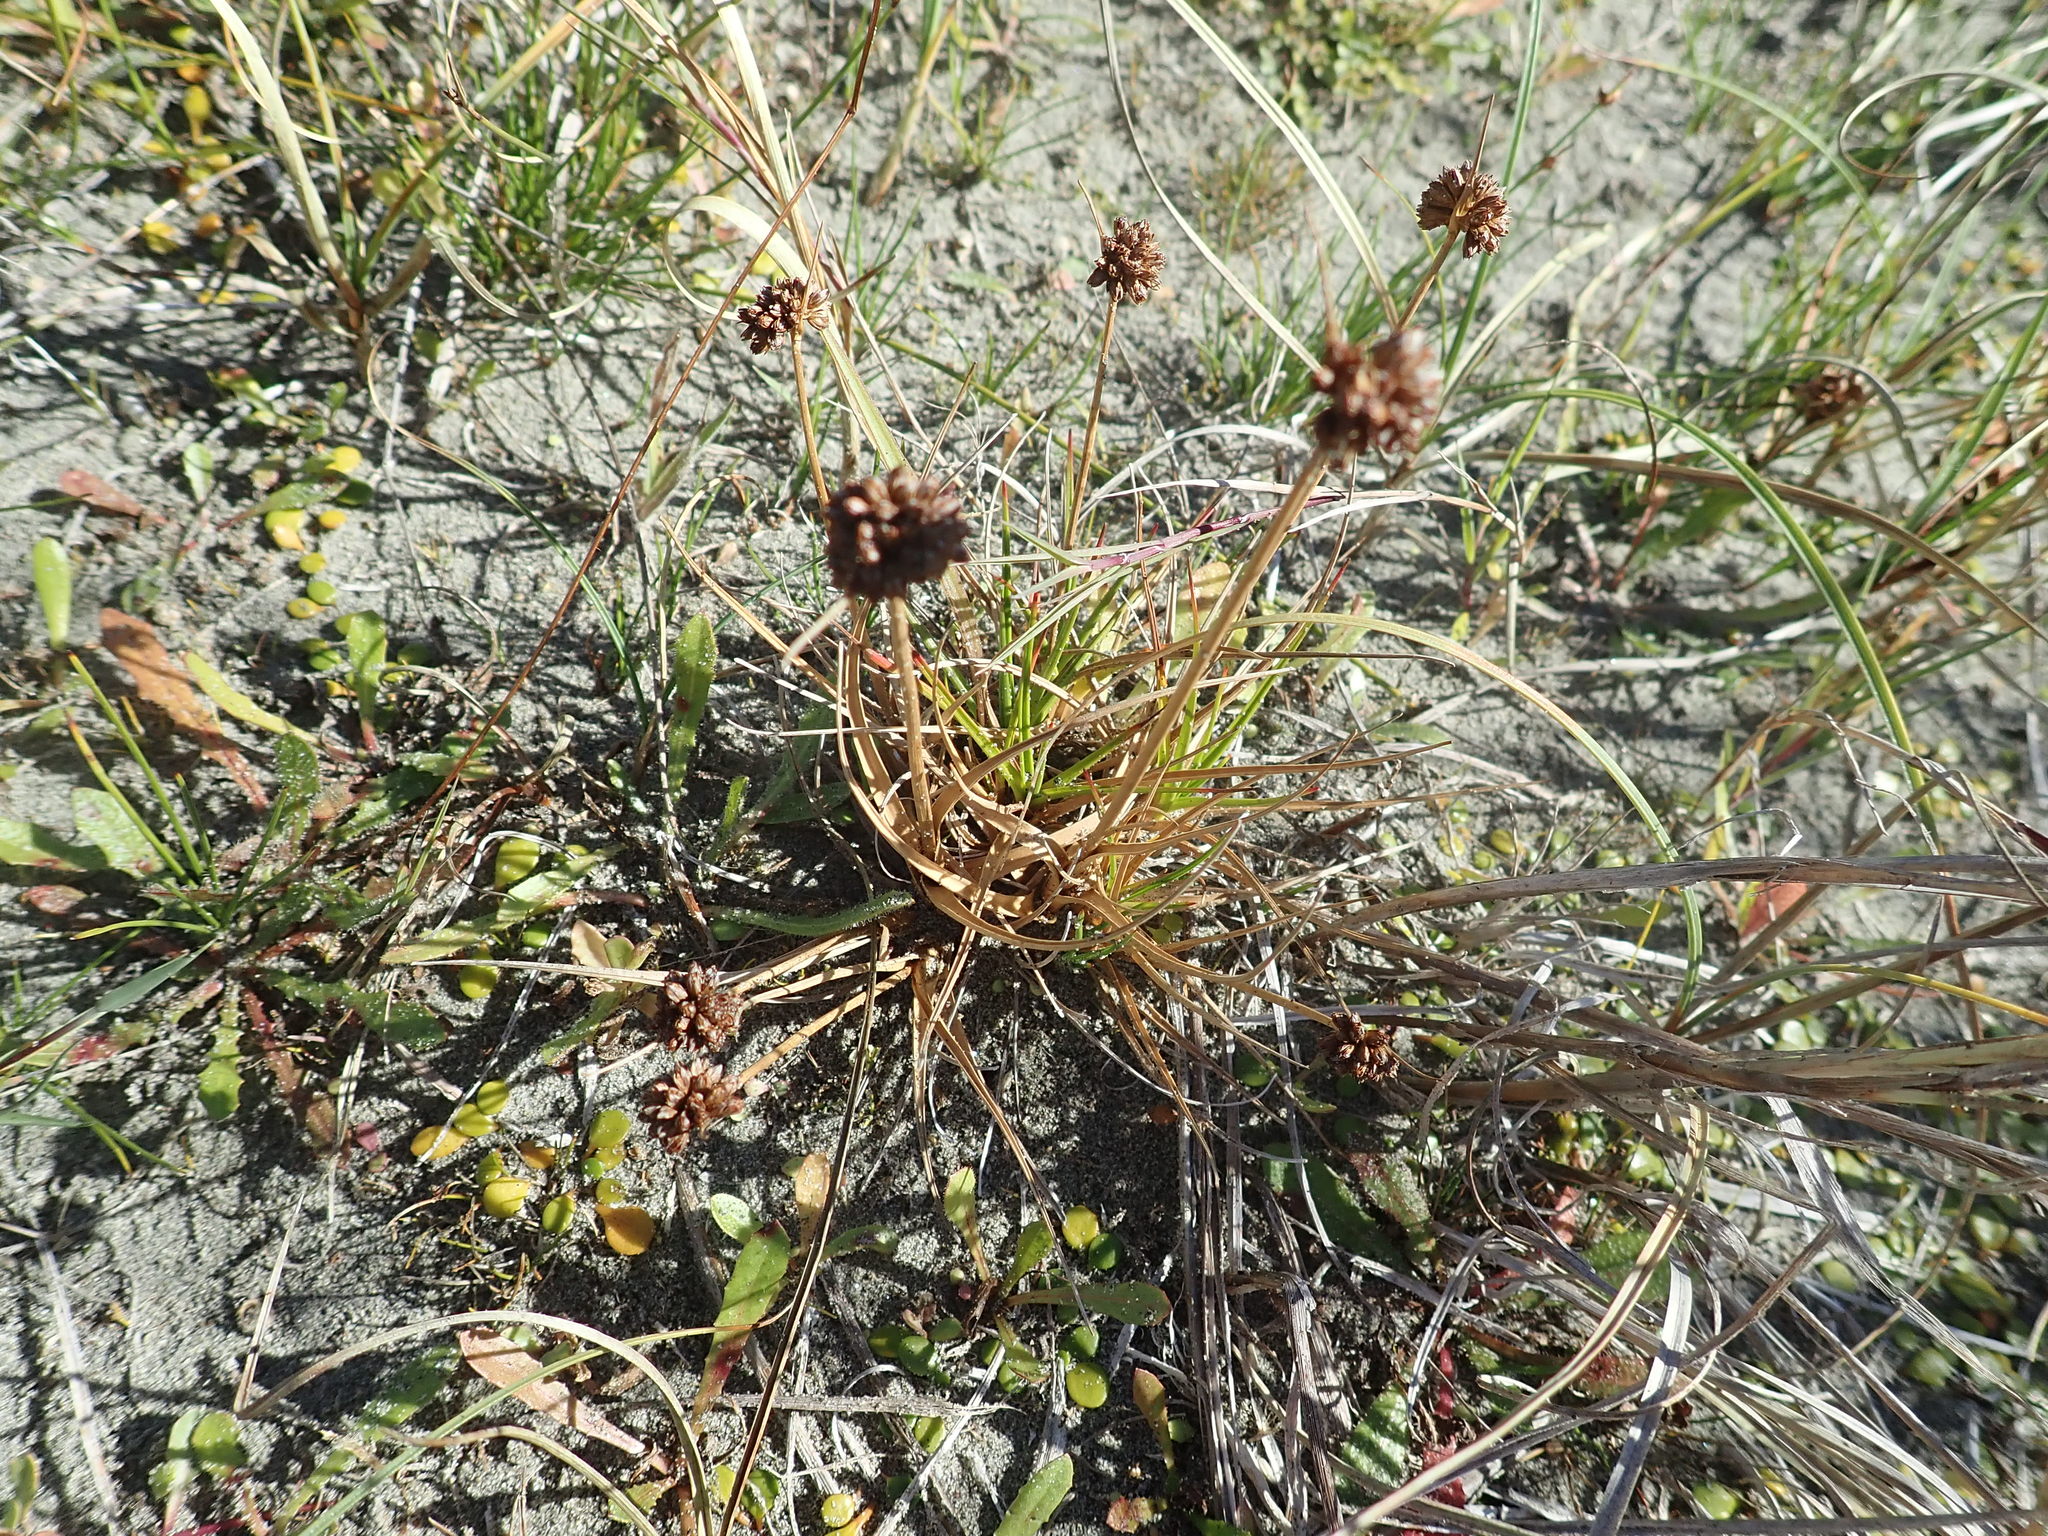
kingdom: Plantae
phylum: Tracheophyta
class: Liliopsida
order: Poales
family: Juncaceae
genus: Juncus
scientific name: Juncus caespiticius
